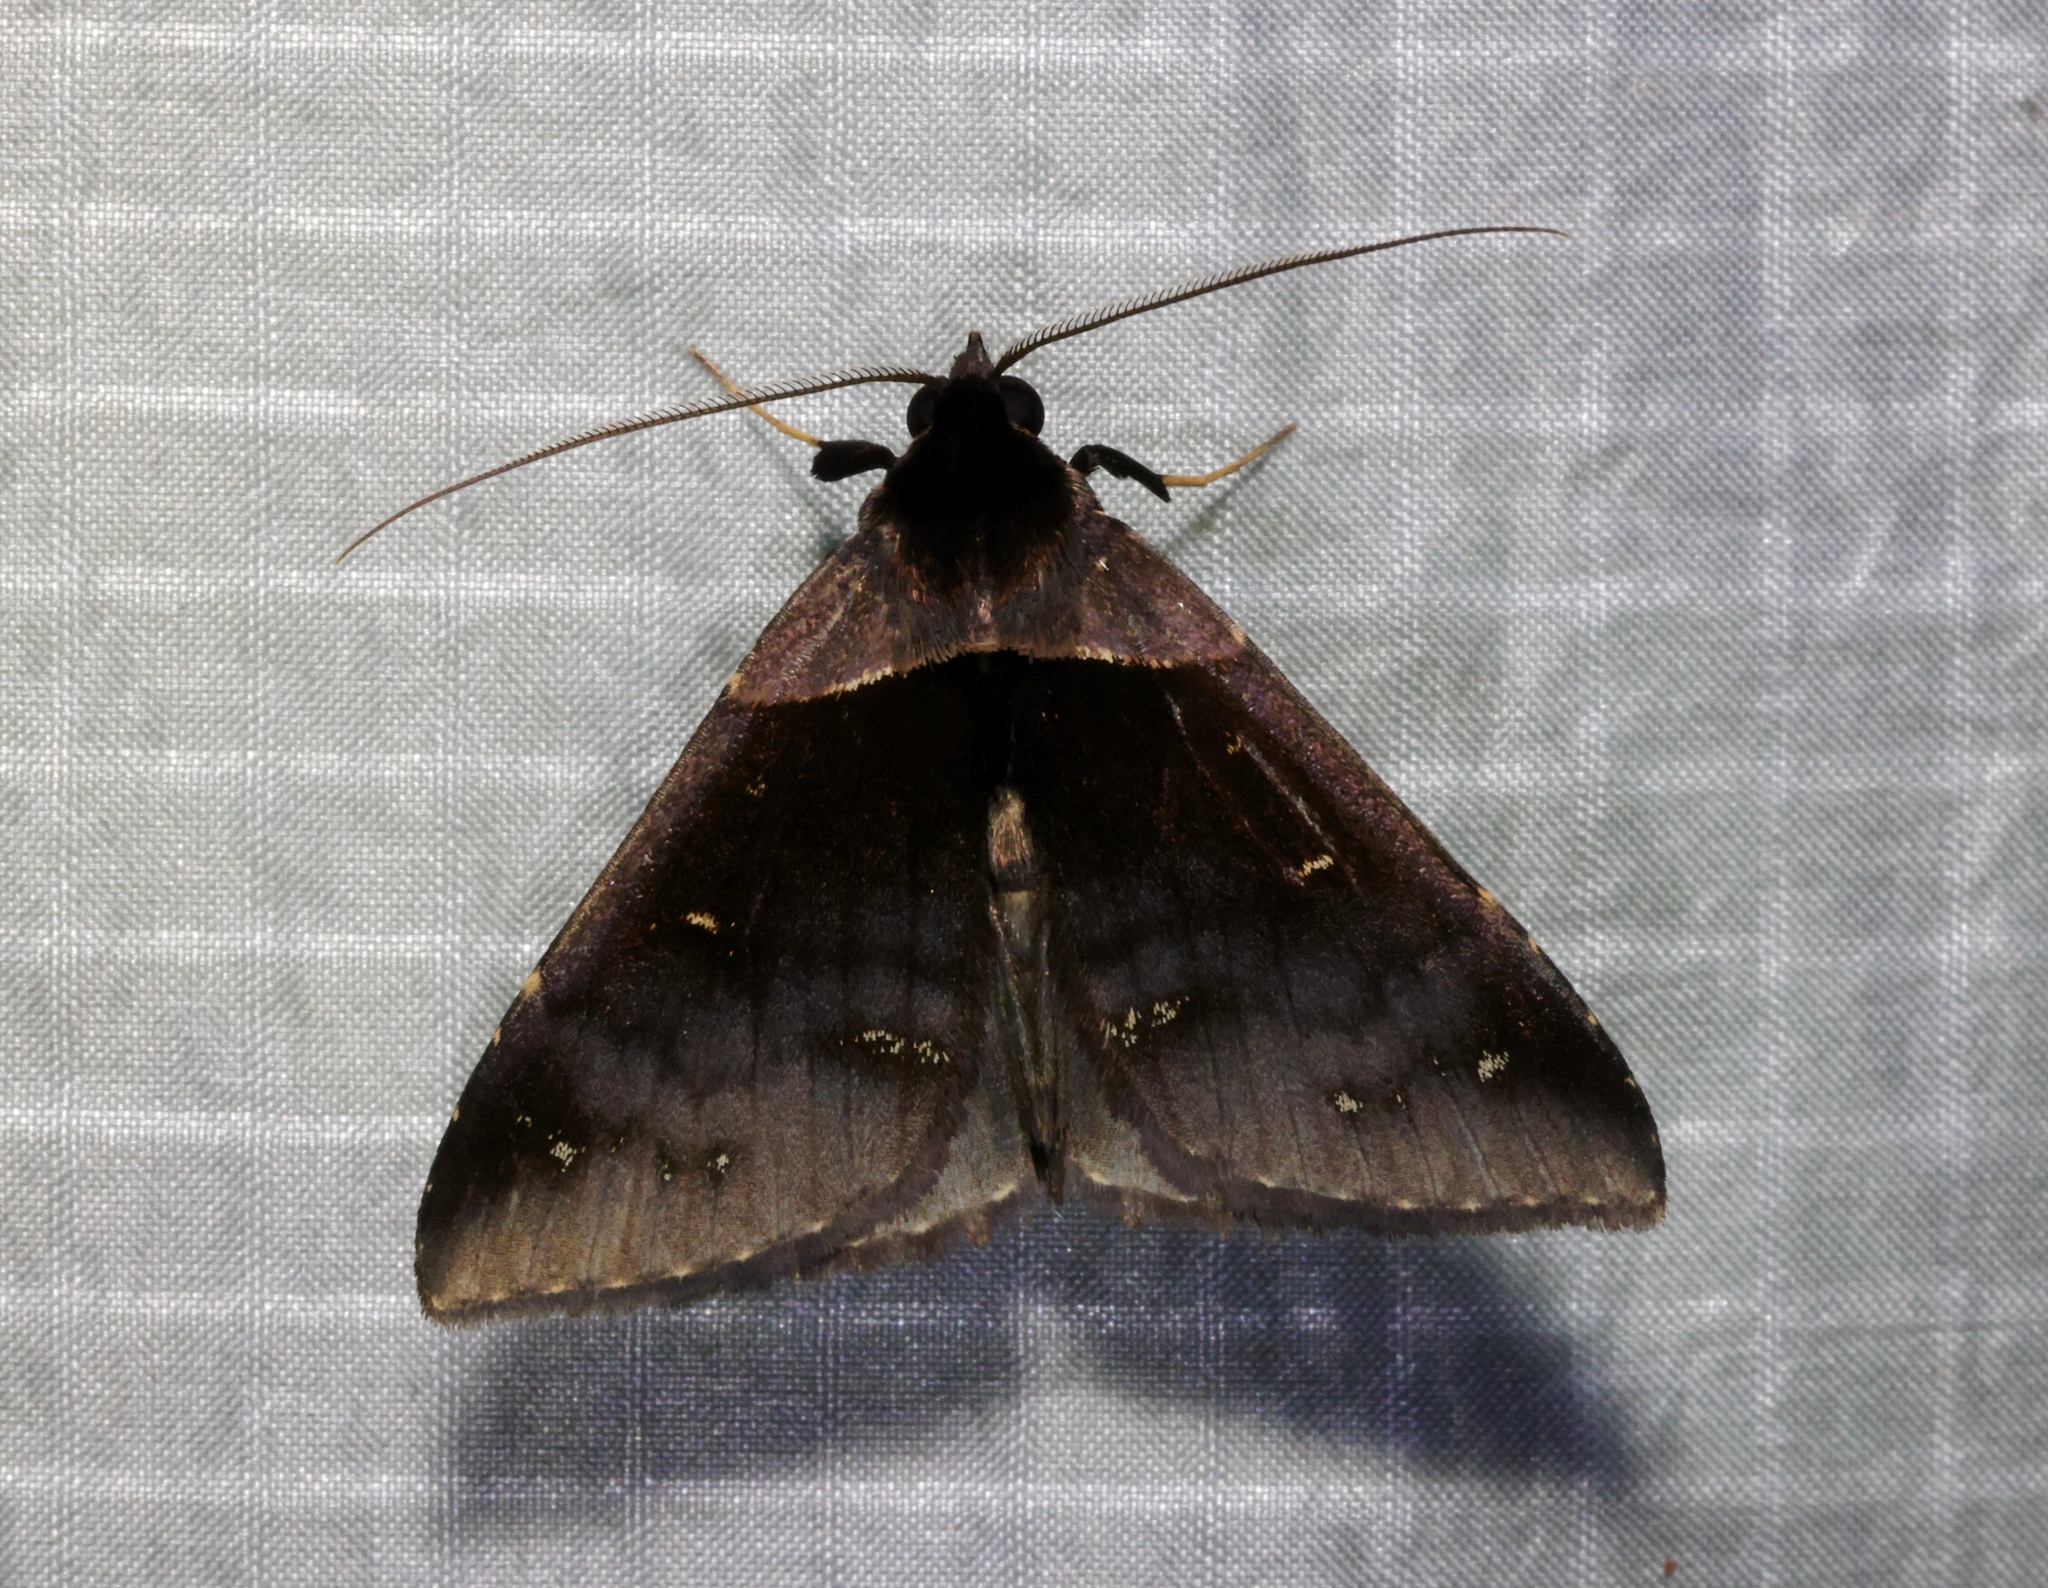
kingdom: Animalia
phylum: Arthropoda
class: Insecta
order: Lepidoptera
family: Erebidae
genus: Crithote
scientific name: Crithote pallivaga
